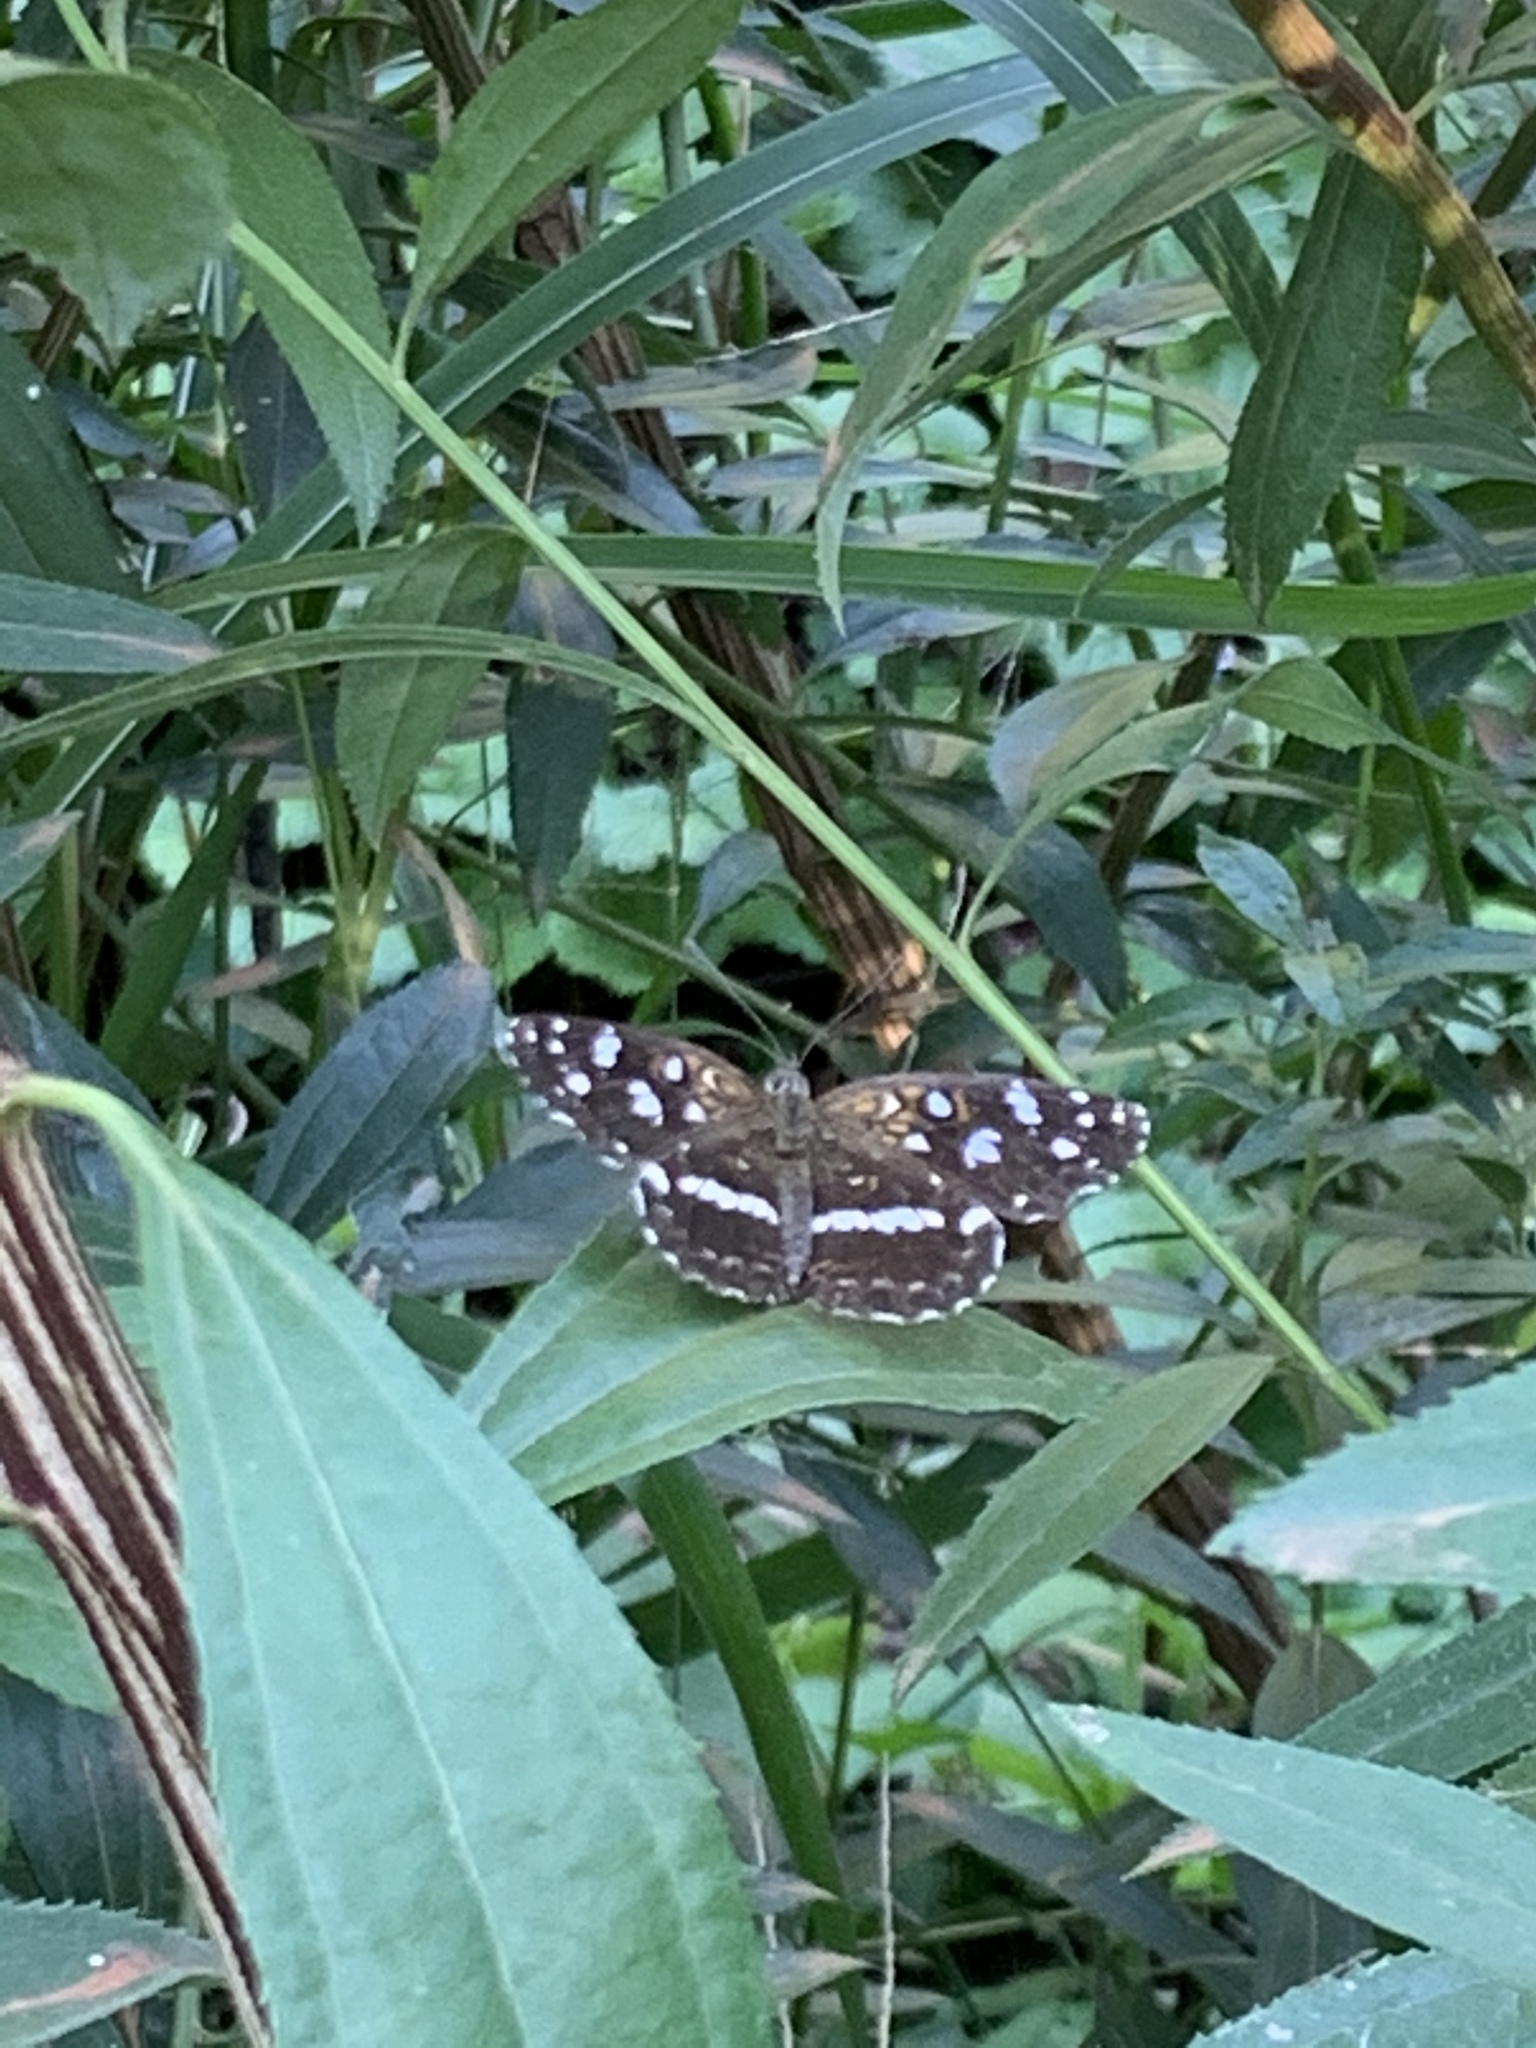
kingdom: Animalia
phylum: Arthropoda
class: Insecta
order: Lepidoptera
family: Nymphalidae
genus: Ortilia
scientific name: Ortilia ithra
